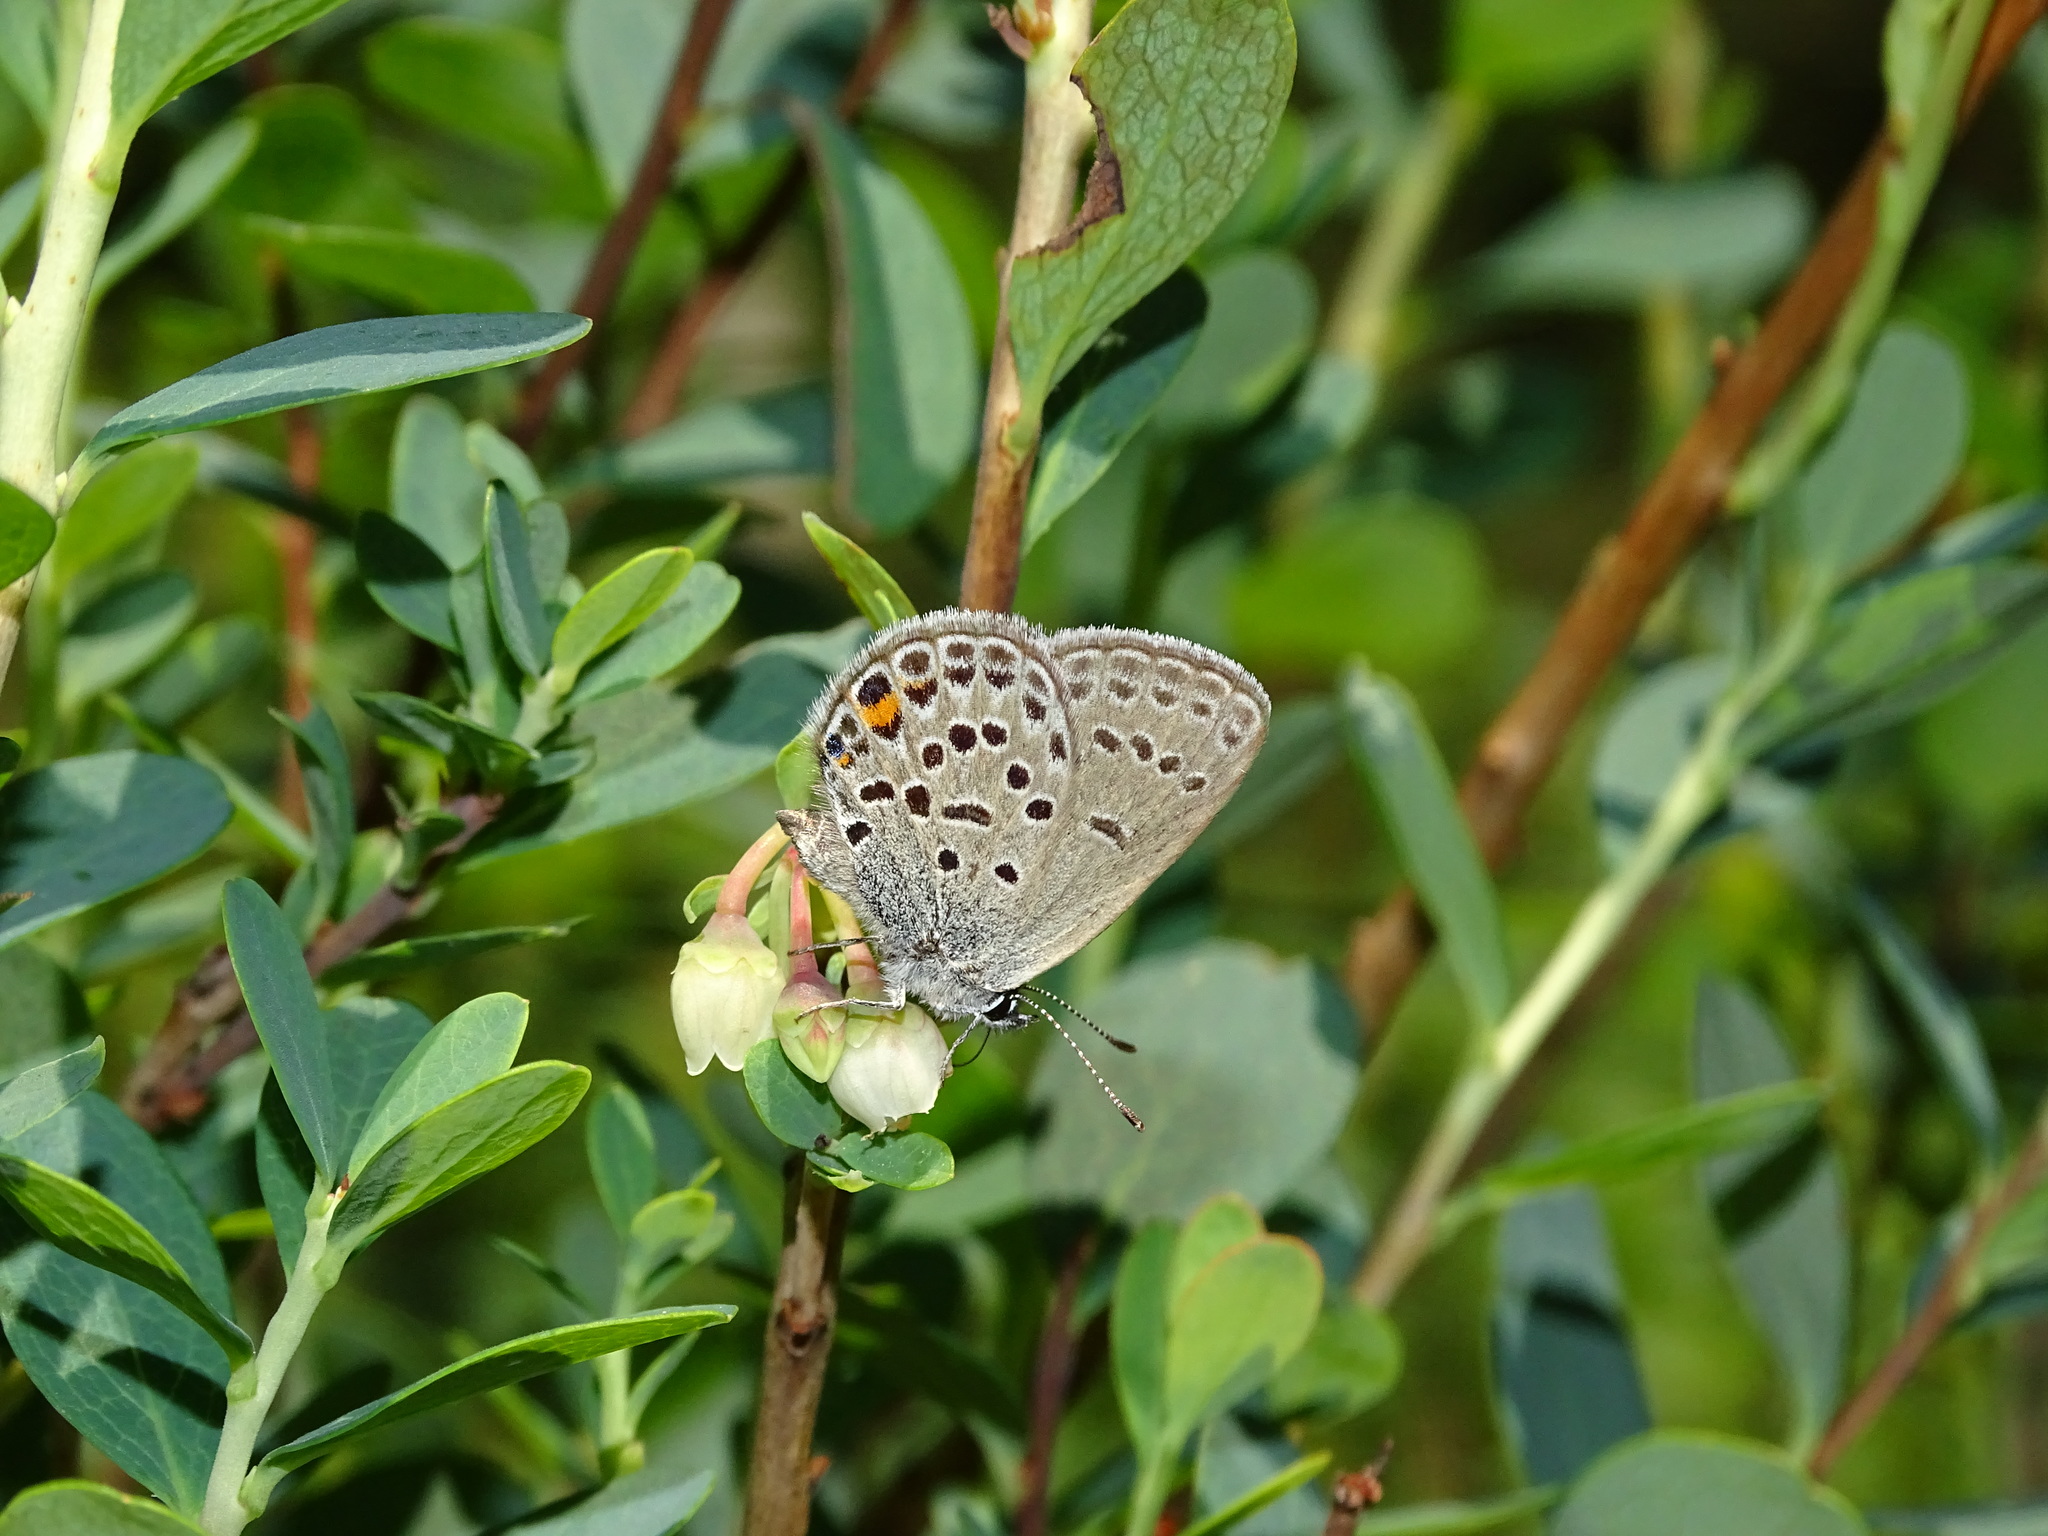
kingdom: Animalia
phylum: Arthropoda
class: Insecta
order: Lepidoptera
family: Lycaenidae
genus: Vacciniina
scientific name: Vacciniina optilete
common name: Cranberry blue
